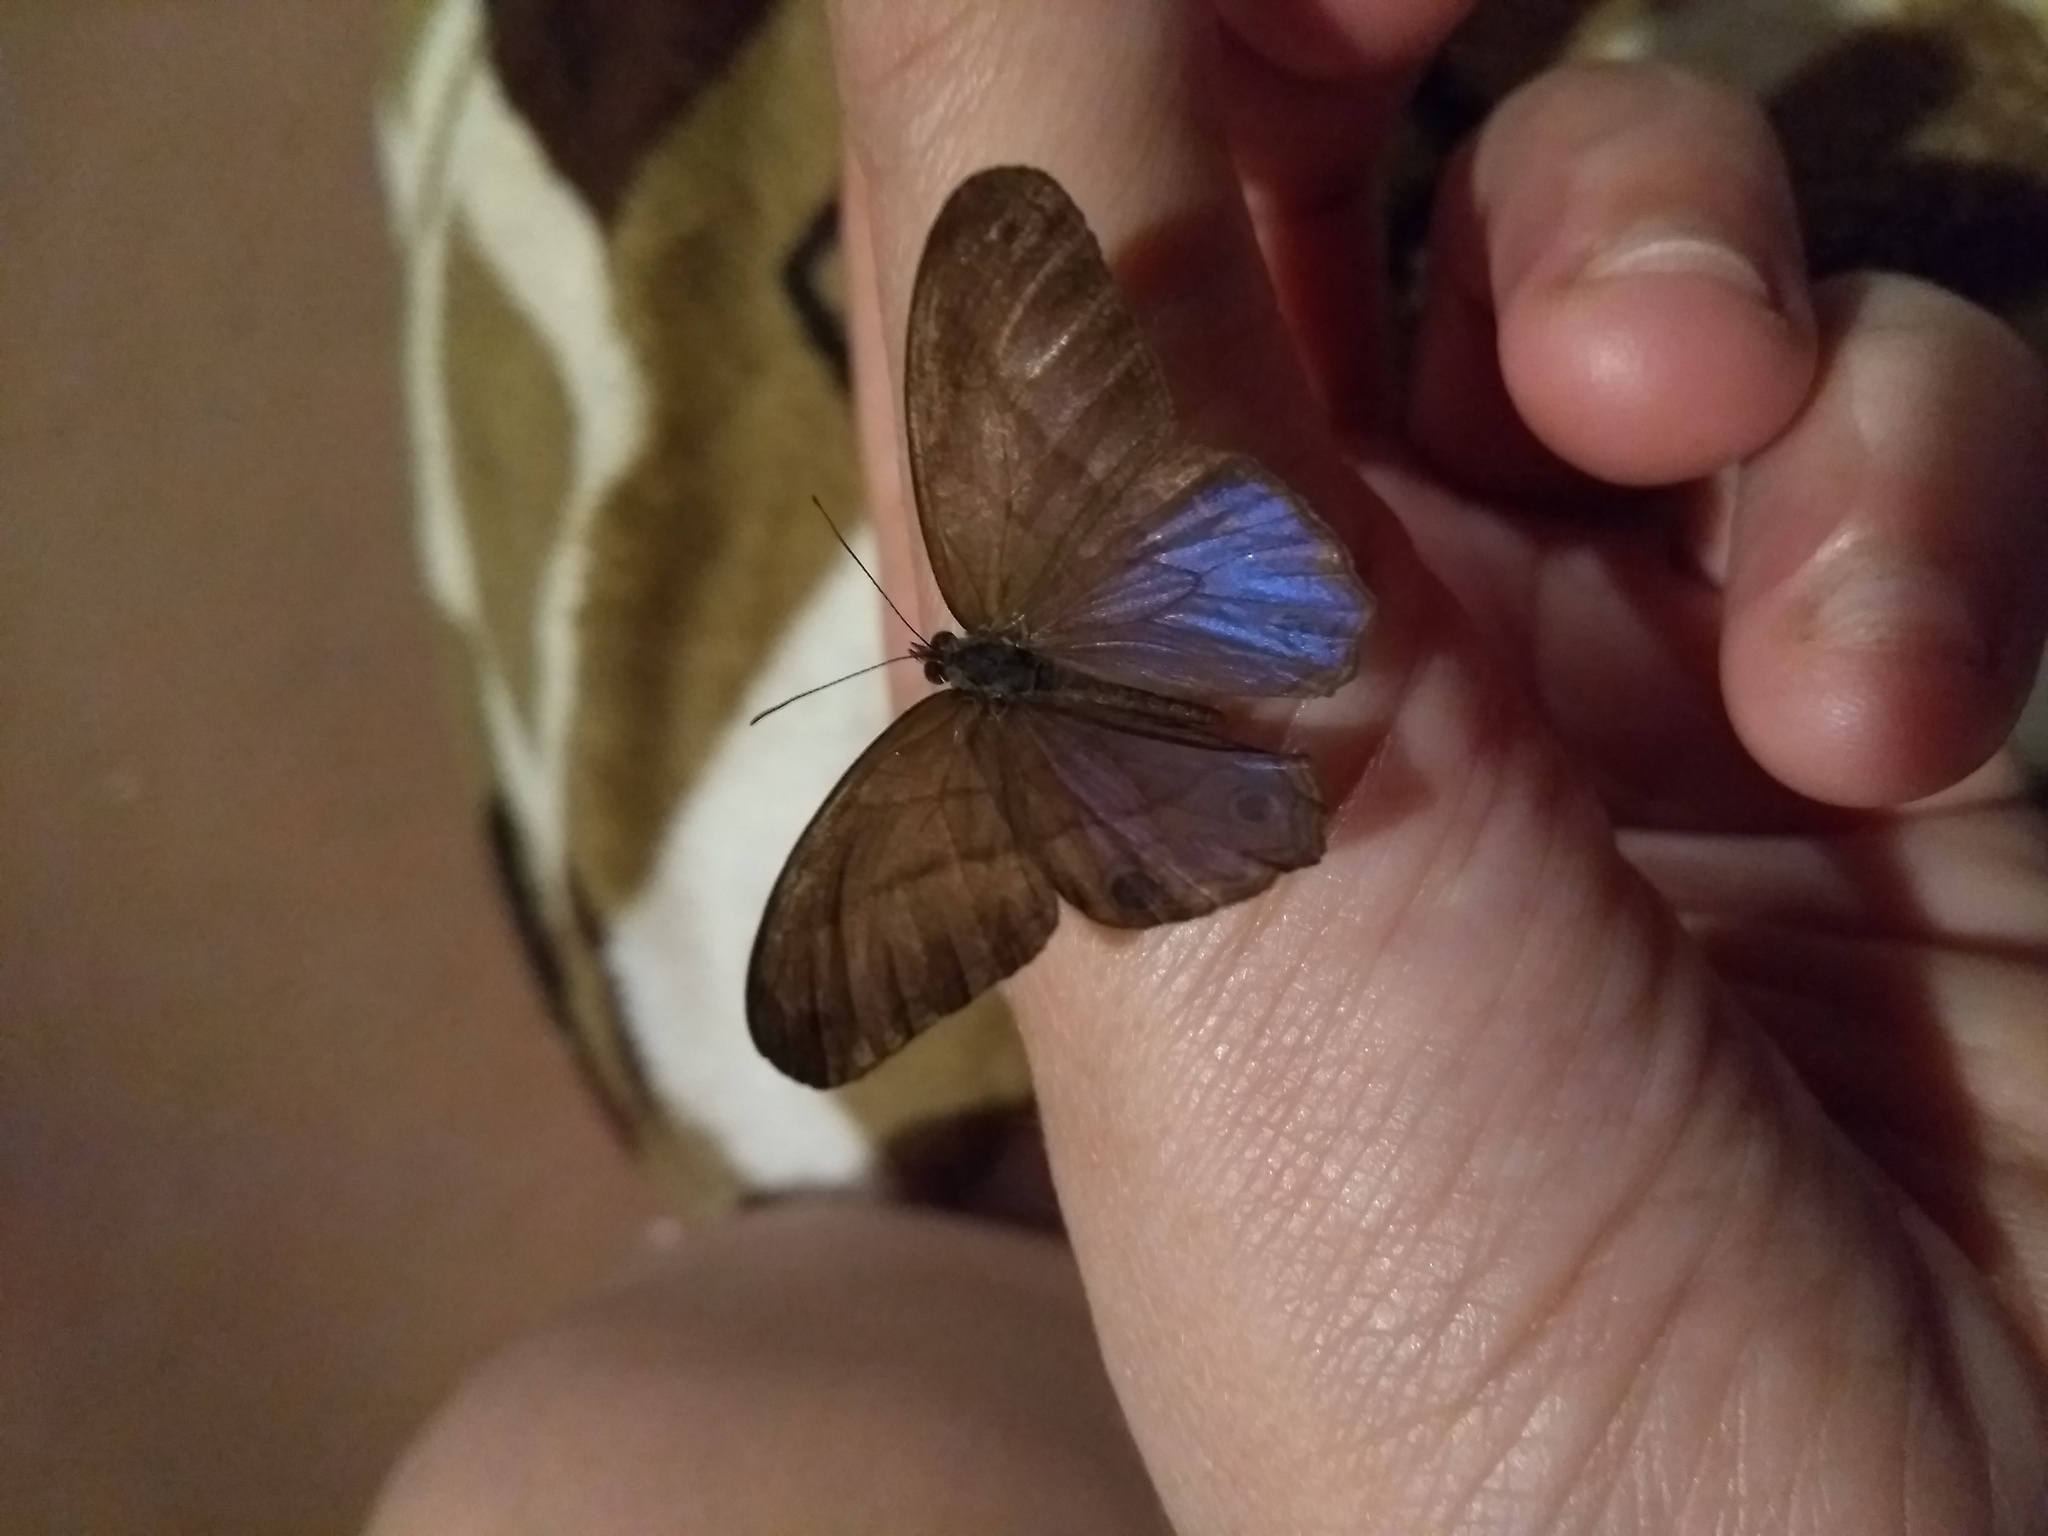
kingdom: Animalia
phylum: Arthropoda
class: Insecta
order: Lepidoptera
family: Nymphalidae
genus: Amiga
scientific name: Amiga arnaca
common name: Blue-topped satyr
